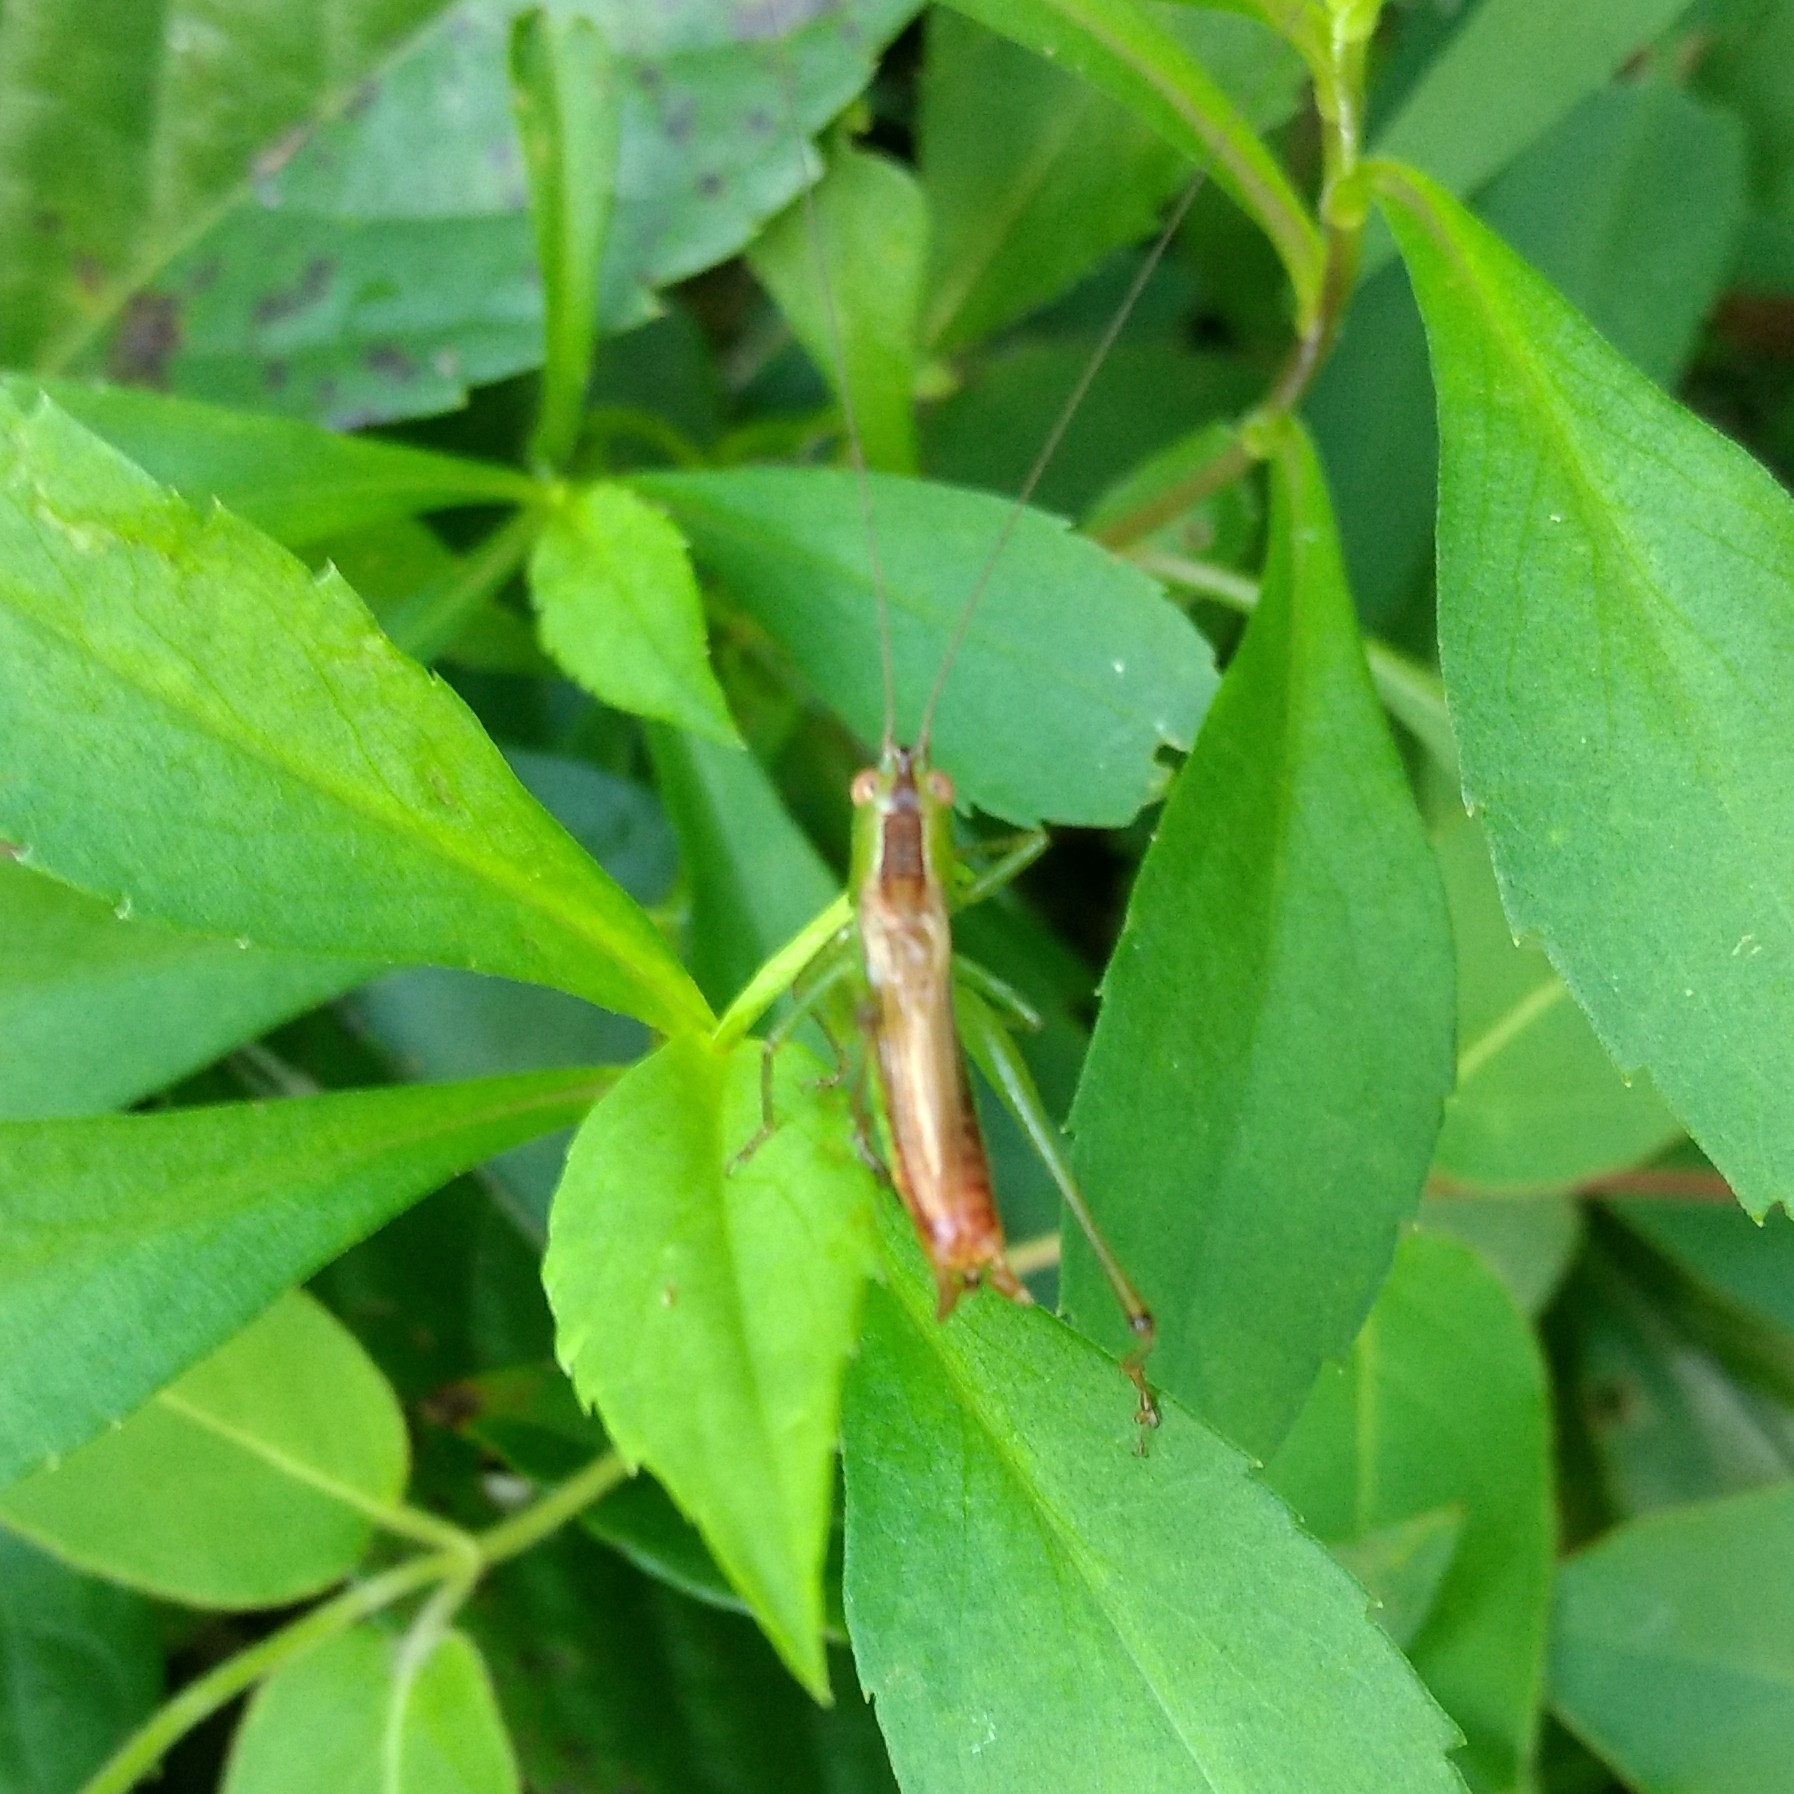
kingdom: Animalia
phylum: Arthropoda
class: Insecta
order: Orthoptera
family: Tettigoniidae
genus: Conocephalus
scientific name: Conocephalus brevipennis
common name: Short-winged meadow katydid
